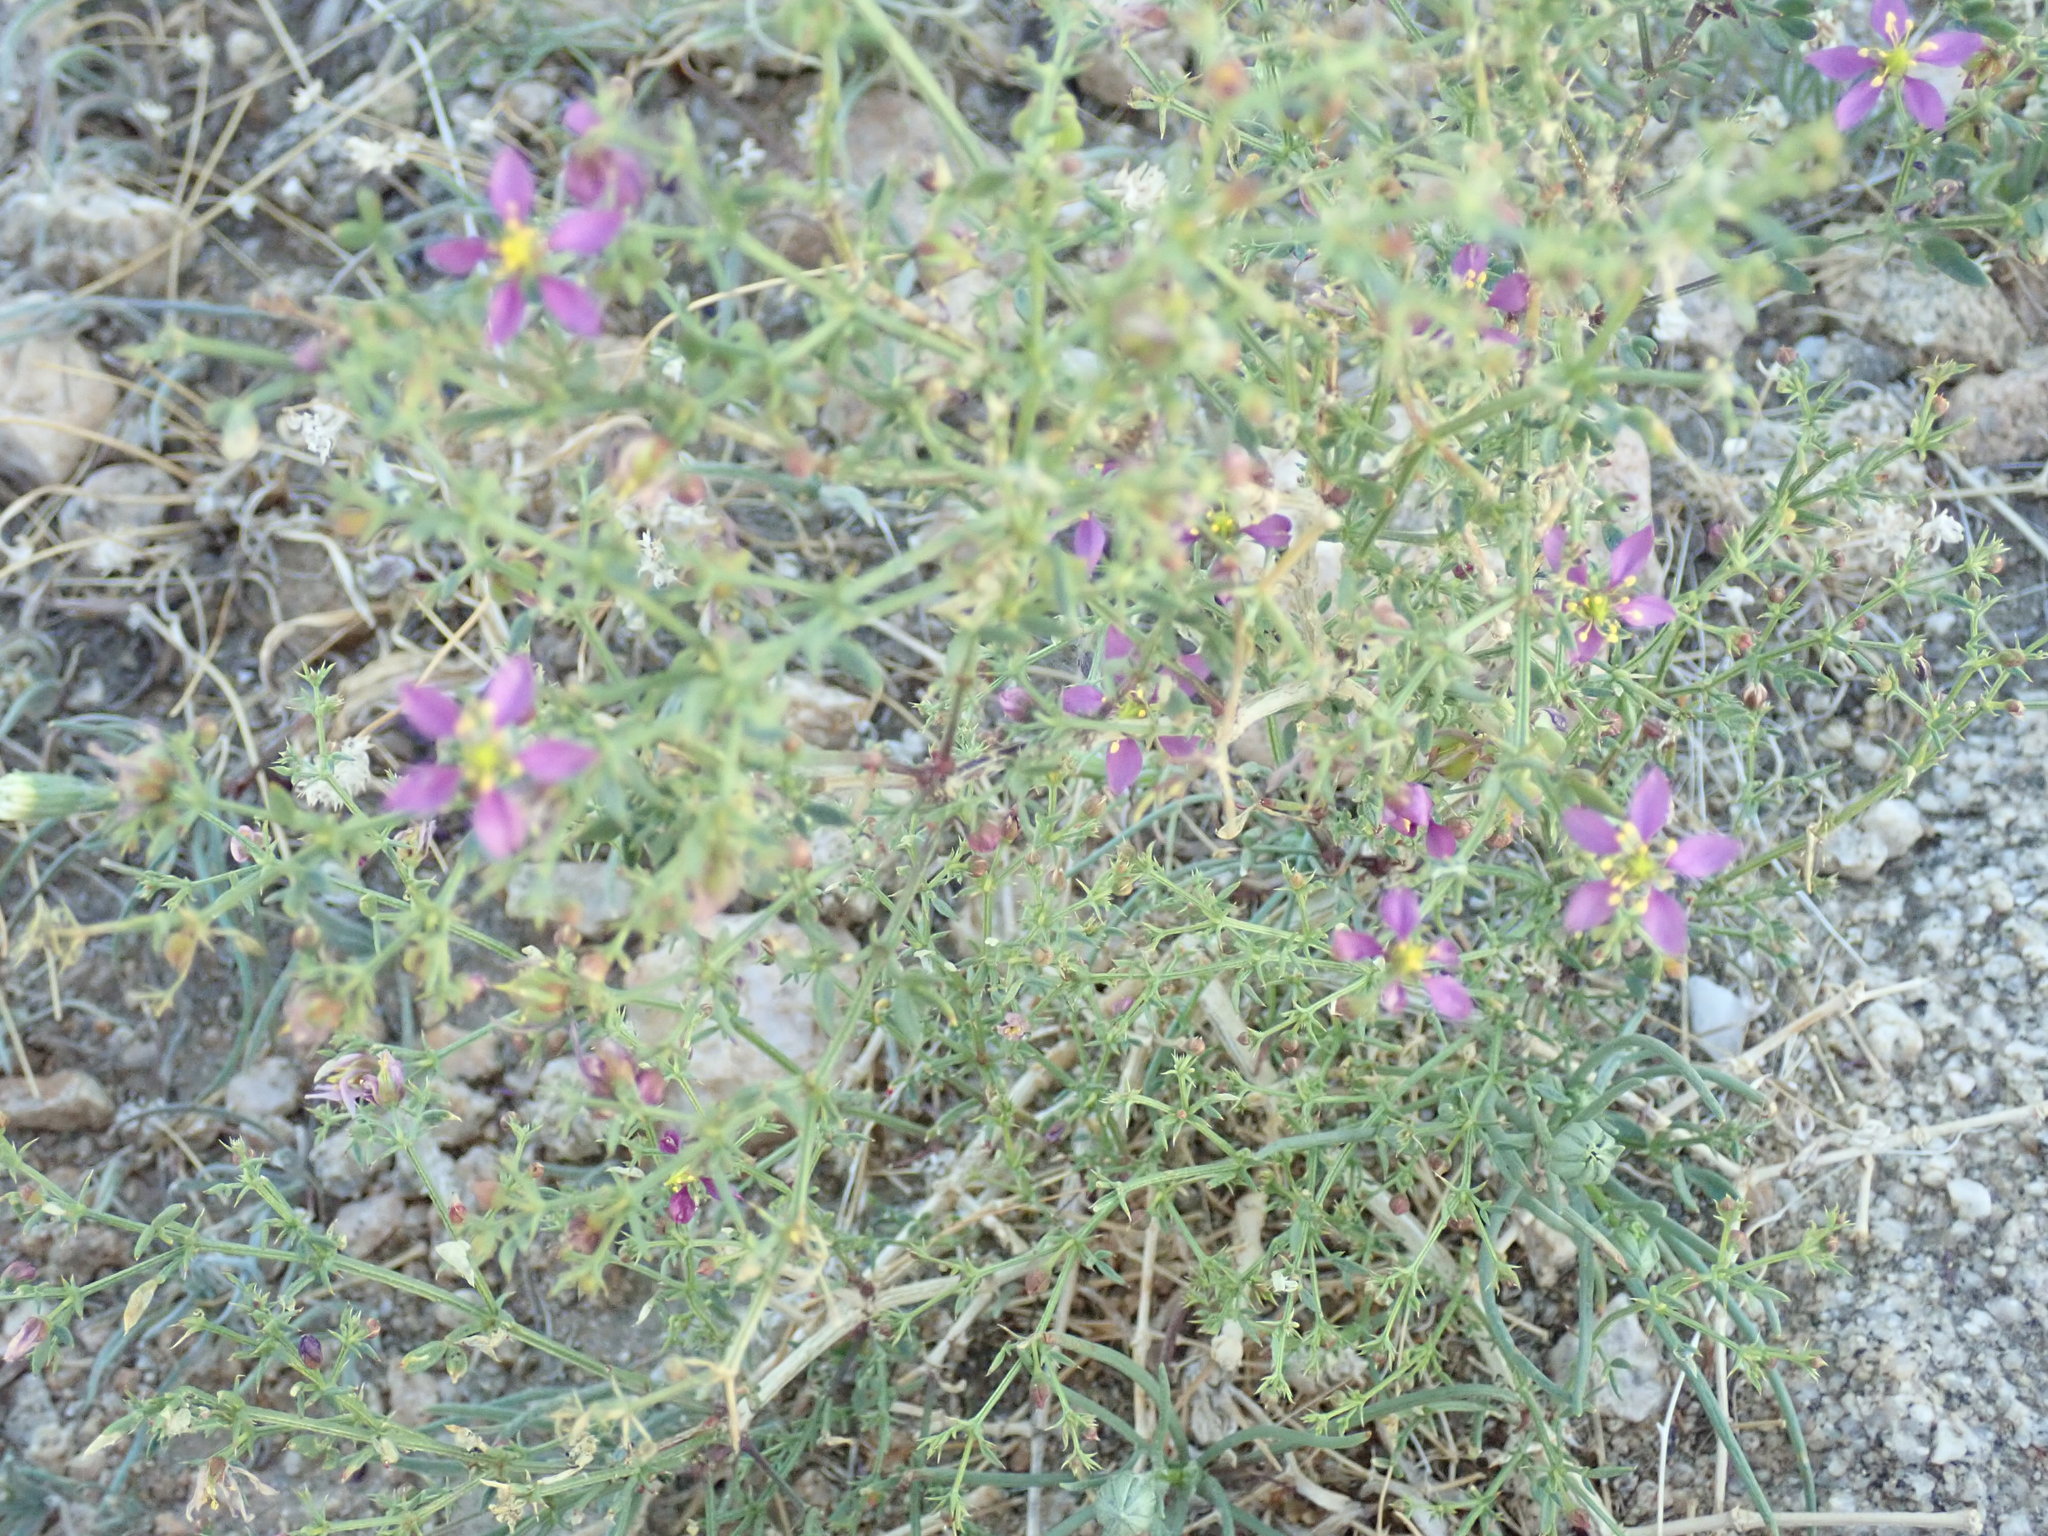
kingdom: Plantae
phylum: Tracheophyta
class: Magnoliopsida
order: Zygophyllales
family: Zygophyllaceae
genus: Fagonia
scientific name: Fagonia laevis
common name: California fagonbush
